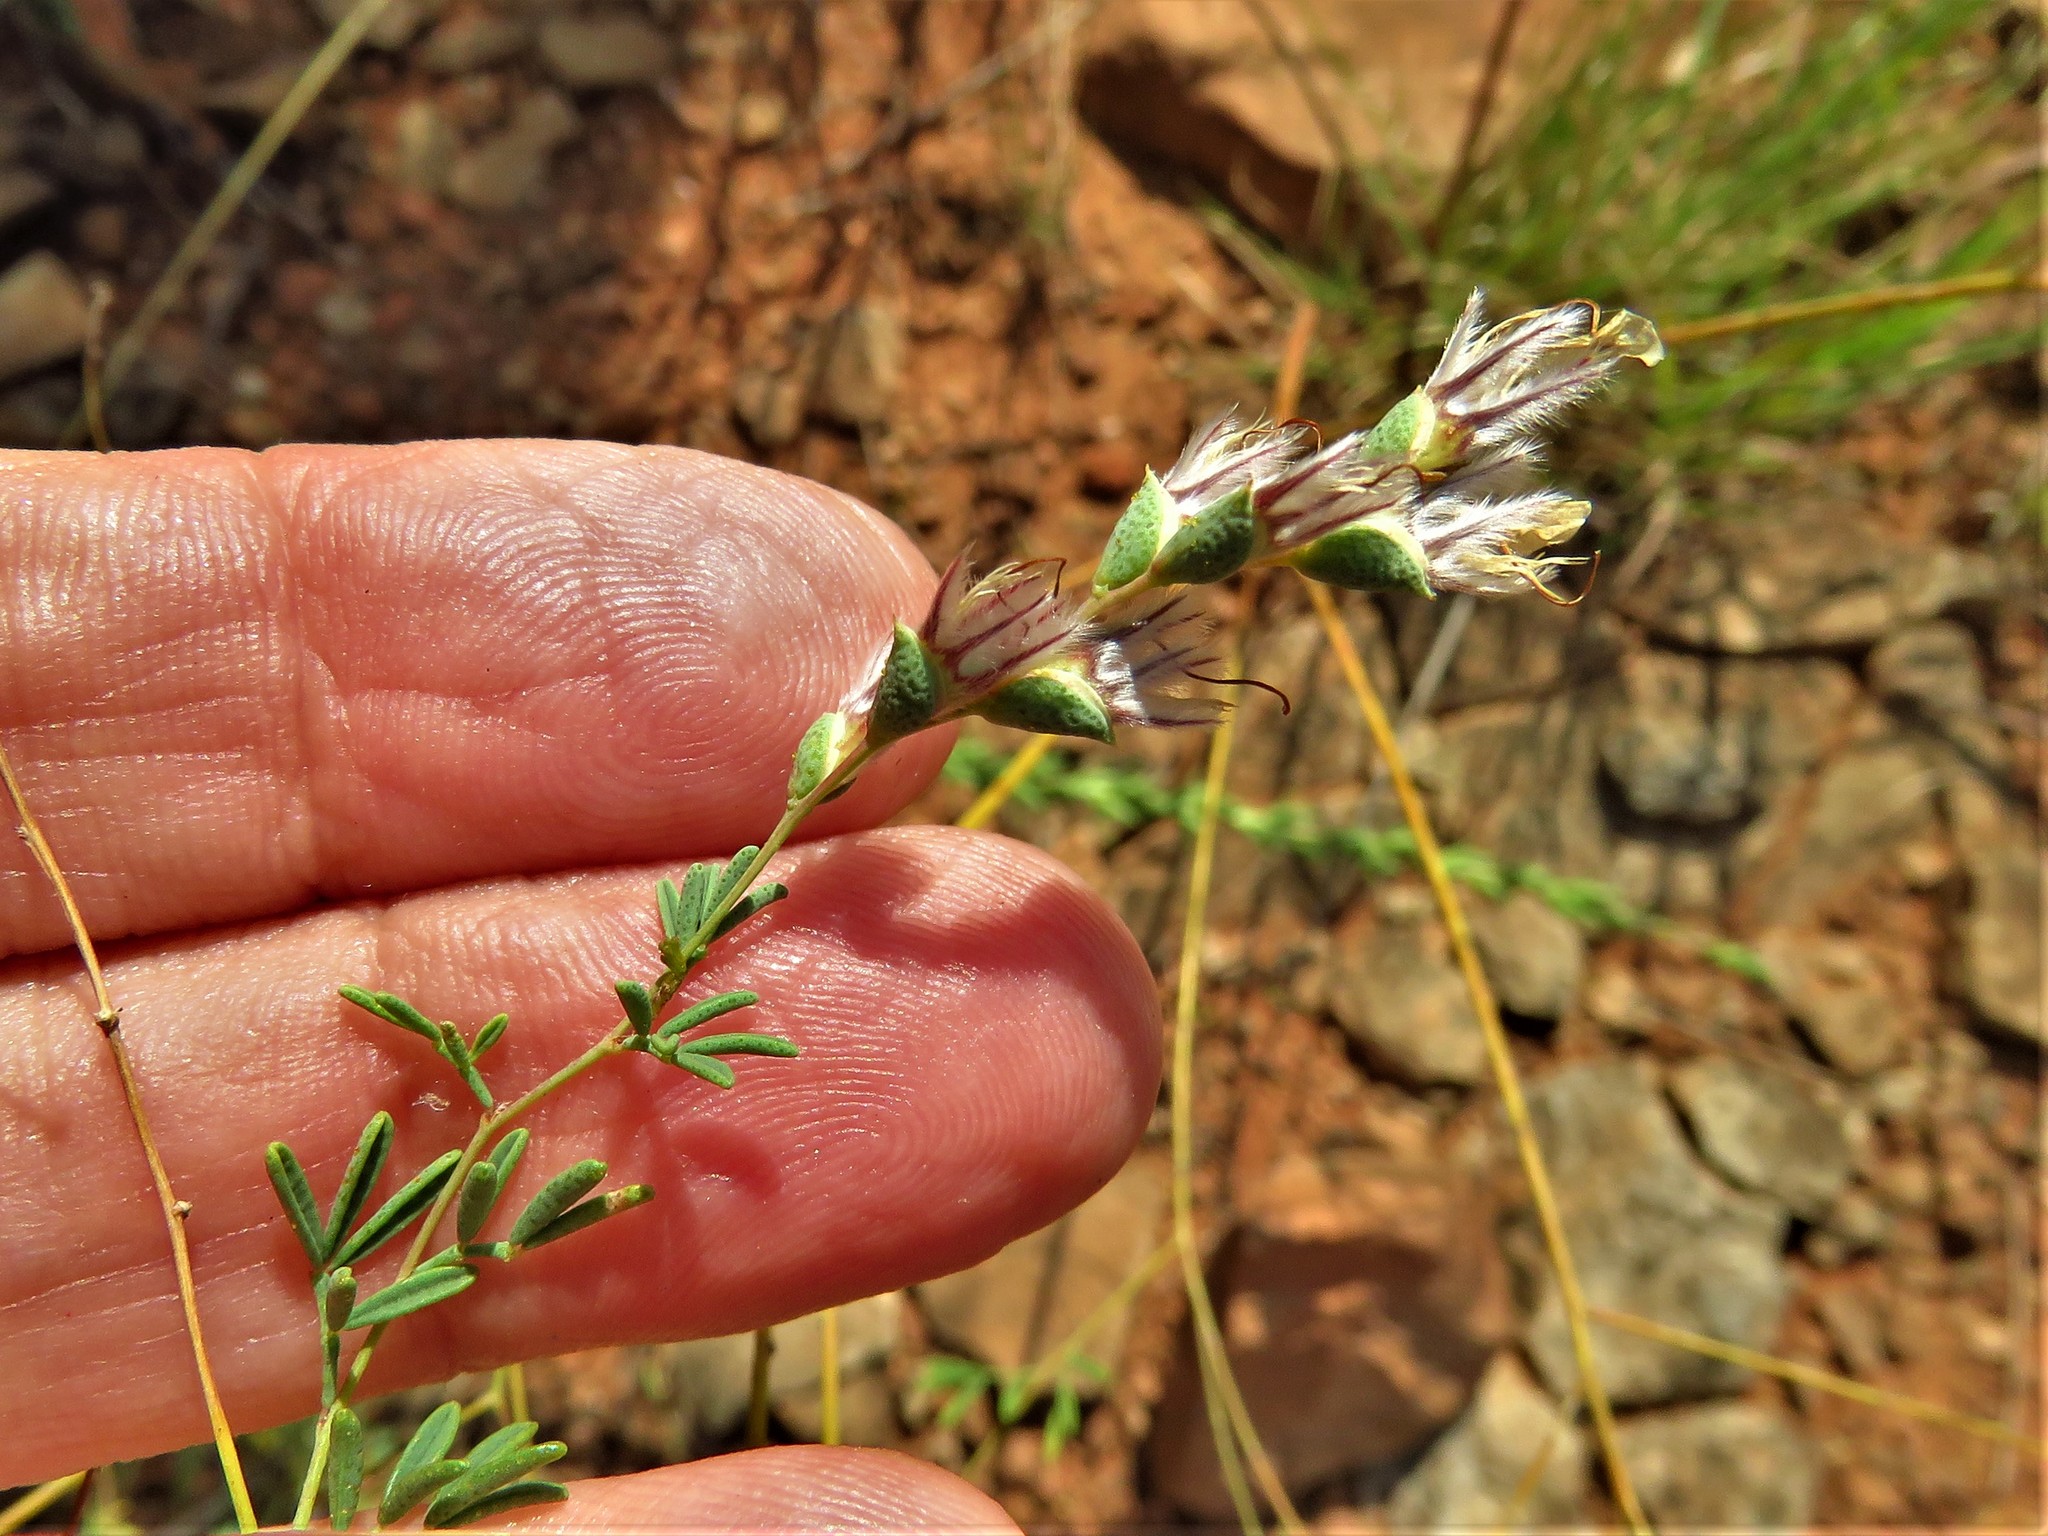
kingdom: Plantae
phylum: Tracheophyta
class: Magnoliopsida
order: Fabales
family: Fabaceae
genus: Dalea
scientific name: Dalea enneandra
